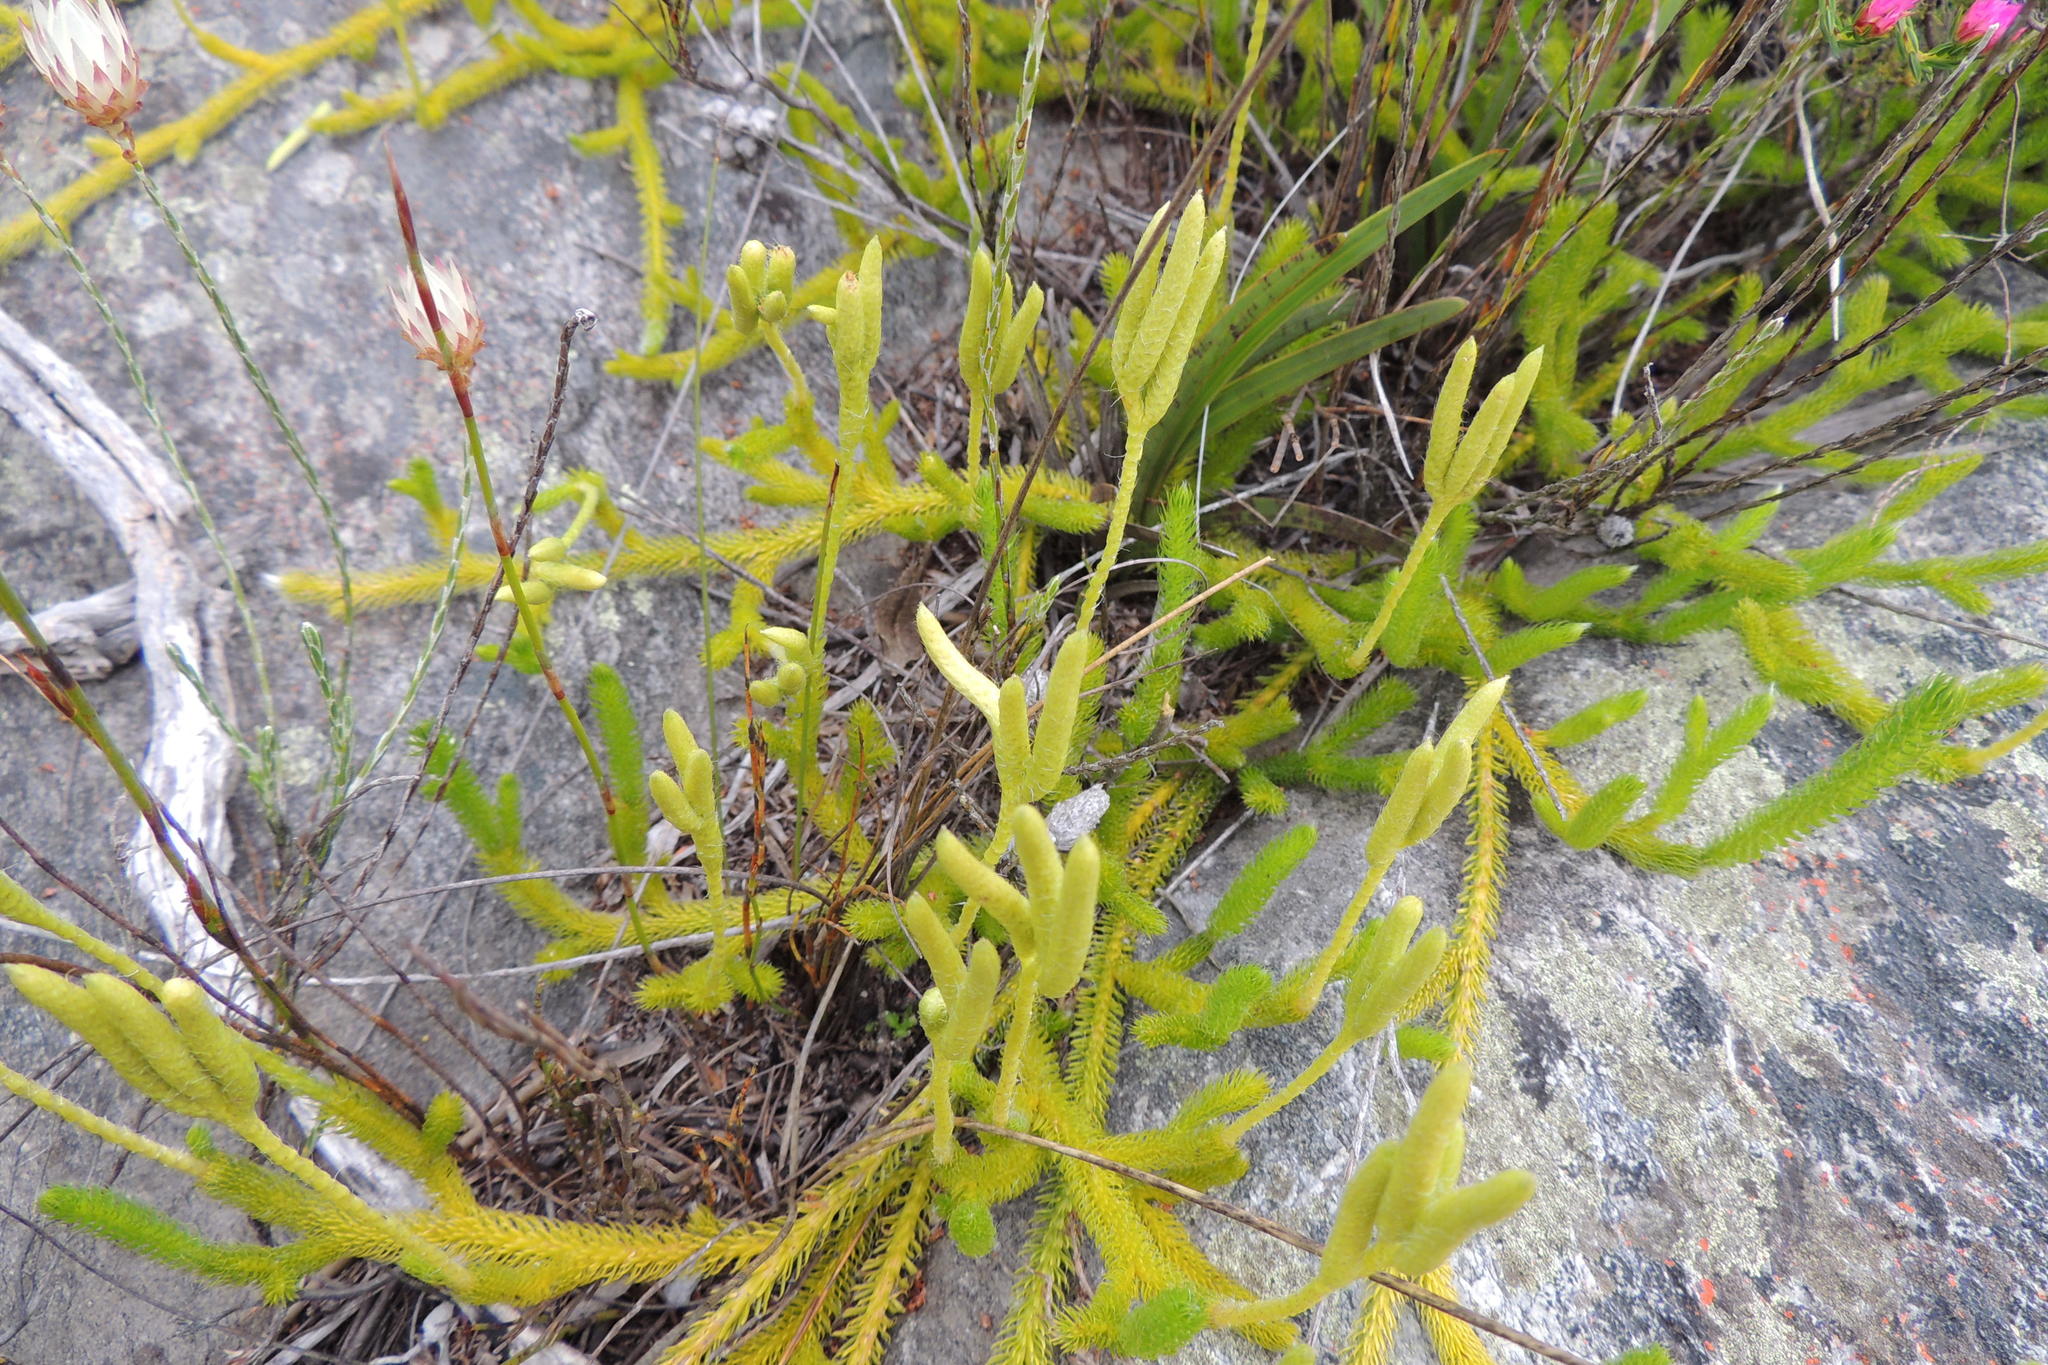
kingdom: Plantae
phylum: Tracheophyta
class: Lycopodiopsida
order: Lycopodiales
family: Lycopodiaceae
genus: Lycopodium
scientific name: Lycopodium clavatum
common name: Stag's-horn clubmoss
